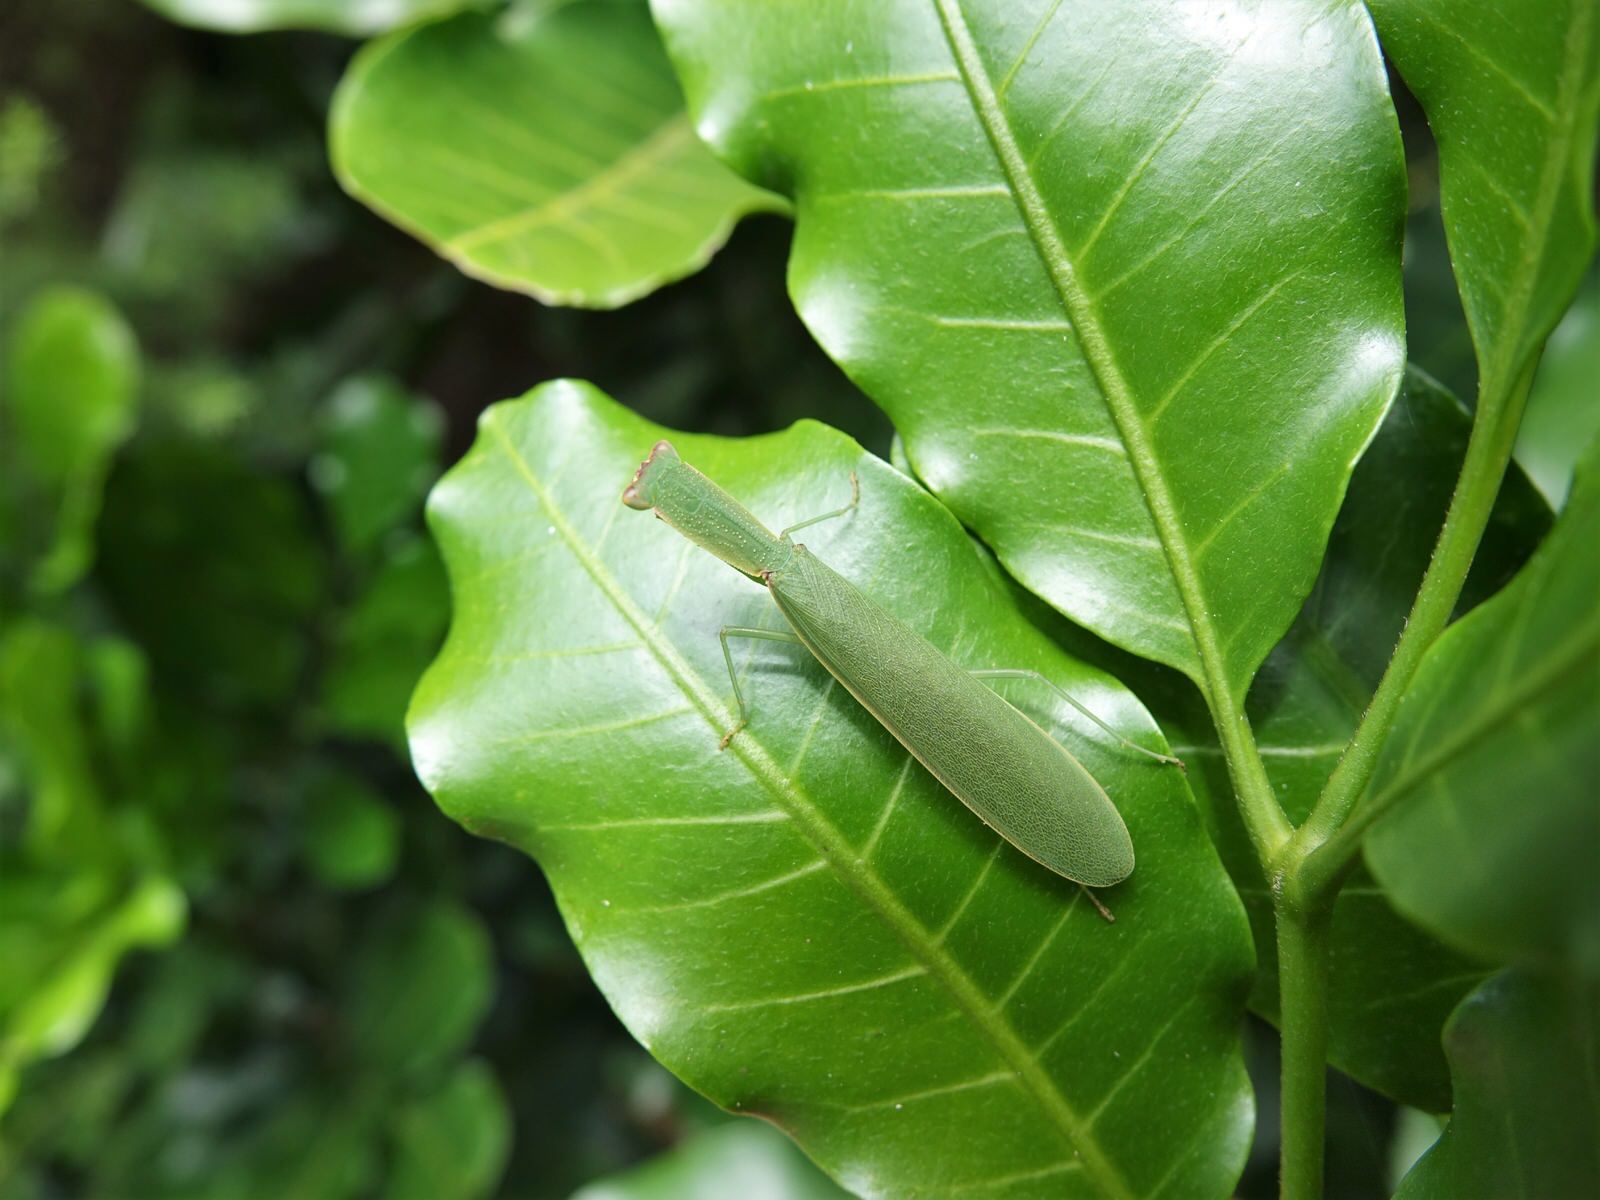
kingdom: Animalia
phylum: Arthropoda
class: Insecta
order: Mantodea
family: Mantidae
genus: Orthodera
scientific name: Orthodera novaezealandiae
